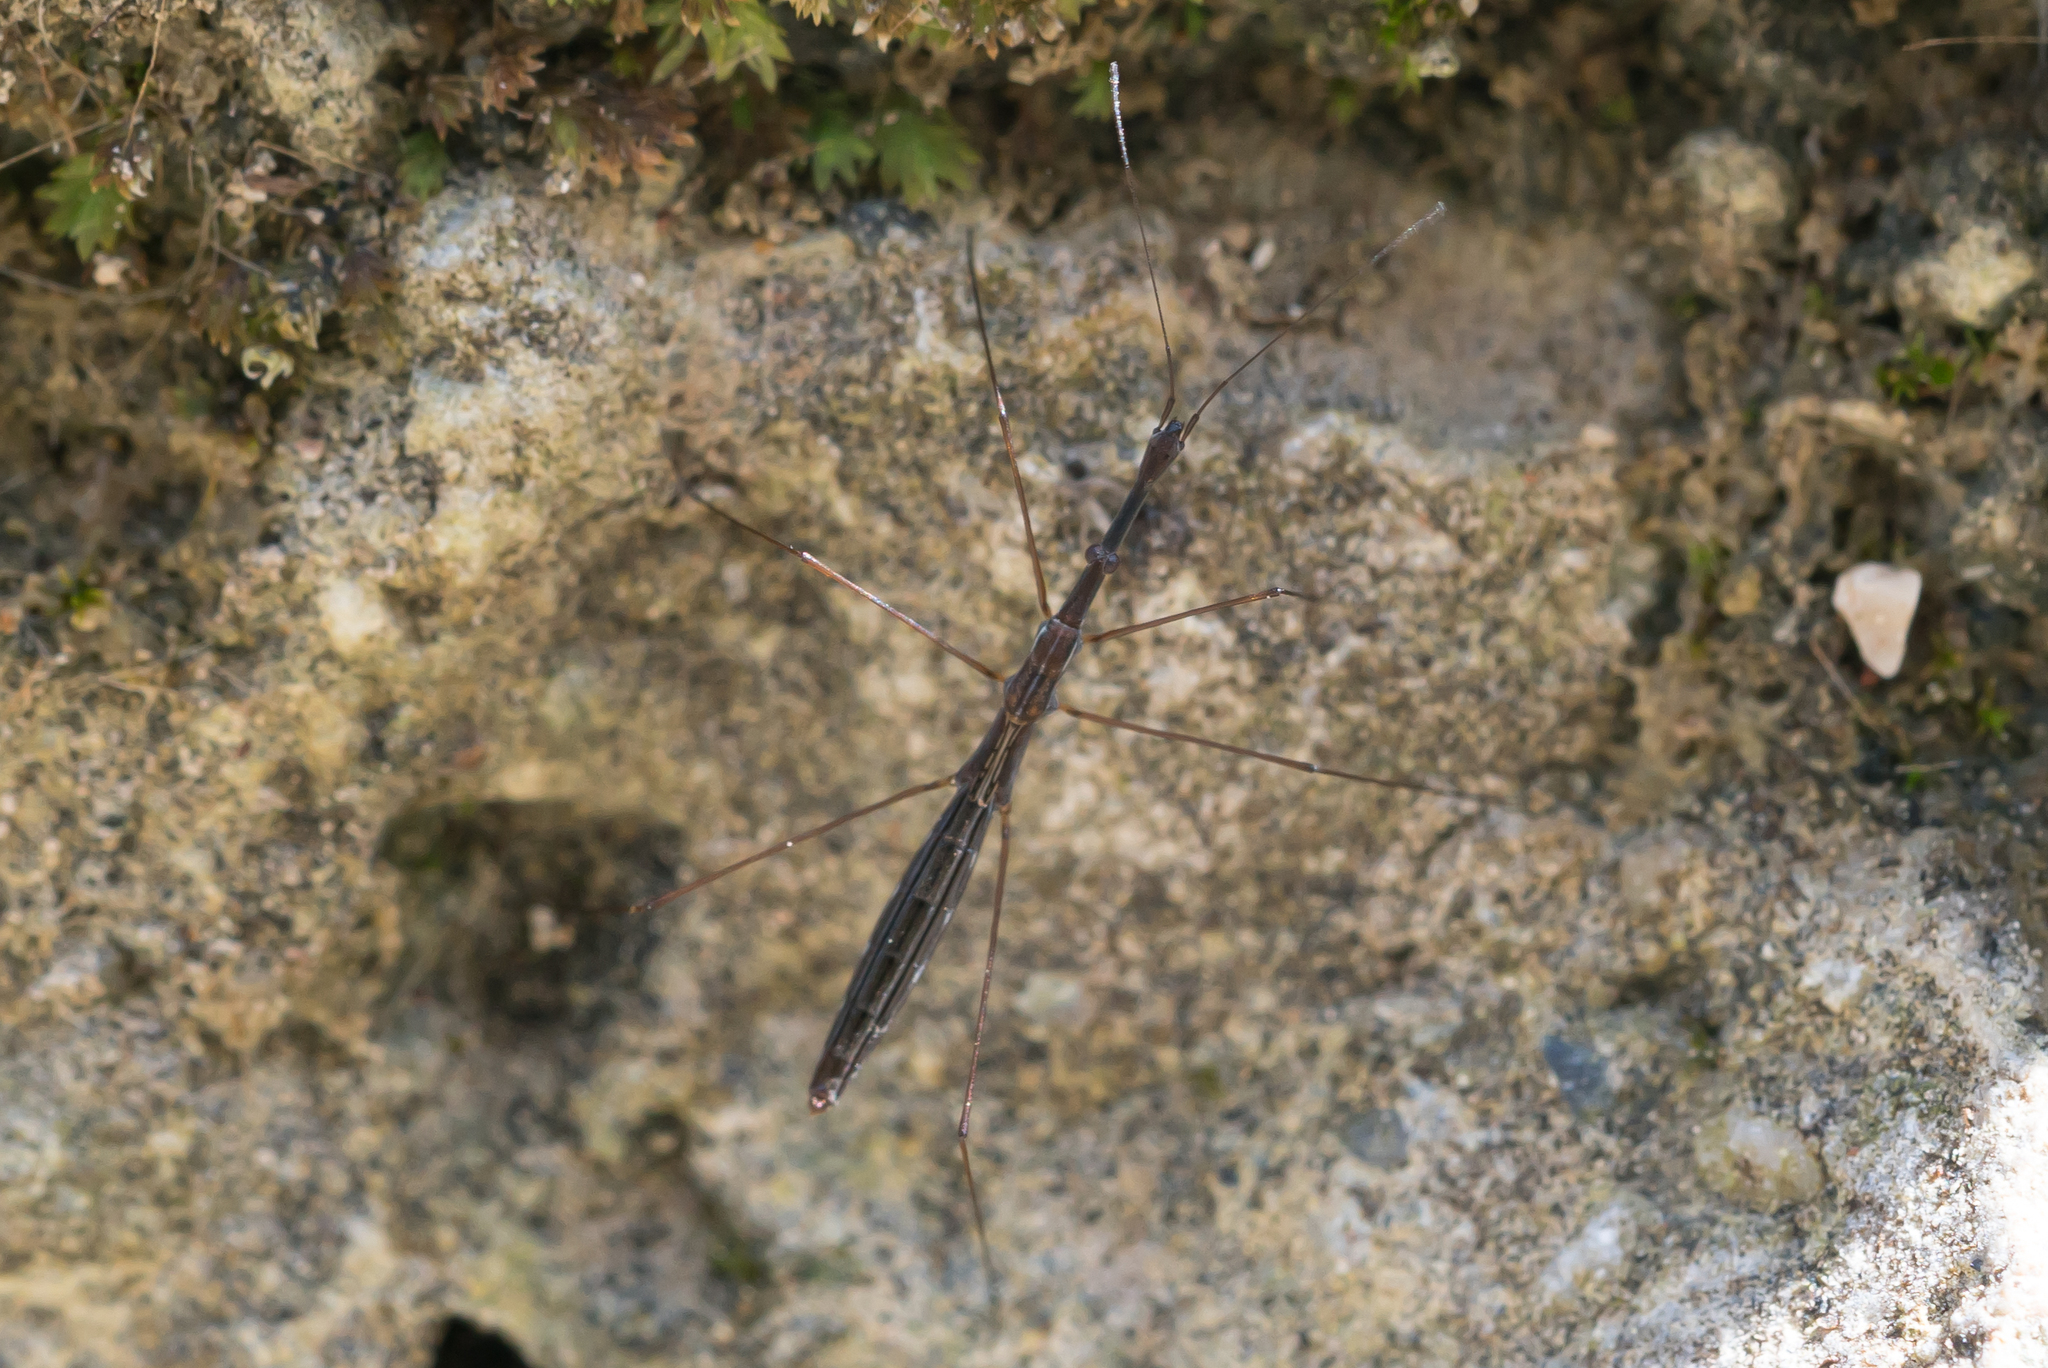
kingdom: Animalia
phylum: Arthropoda
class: Insecta
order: Hemiptera
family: Hydrometridae
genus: Hydrometra
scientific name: Hydrometra stagnorum
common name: Water measurer
